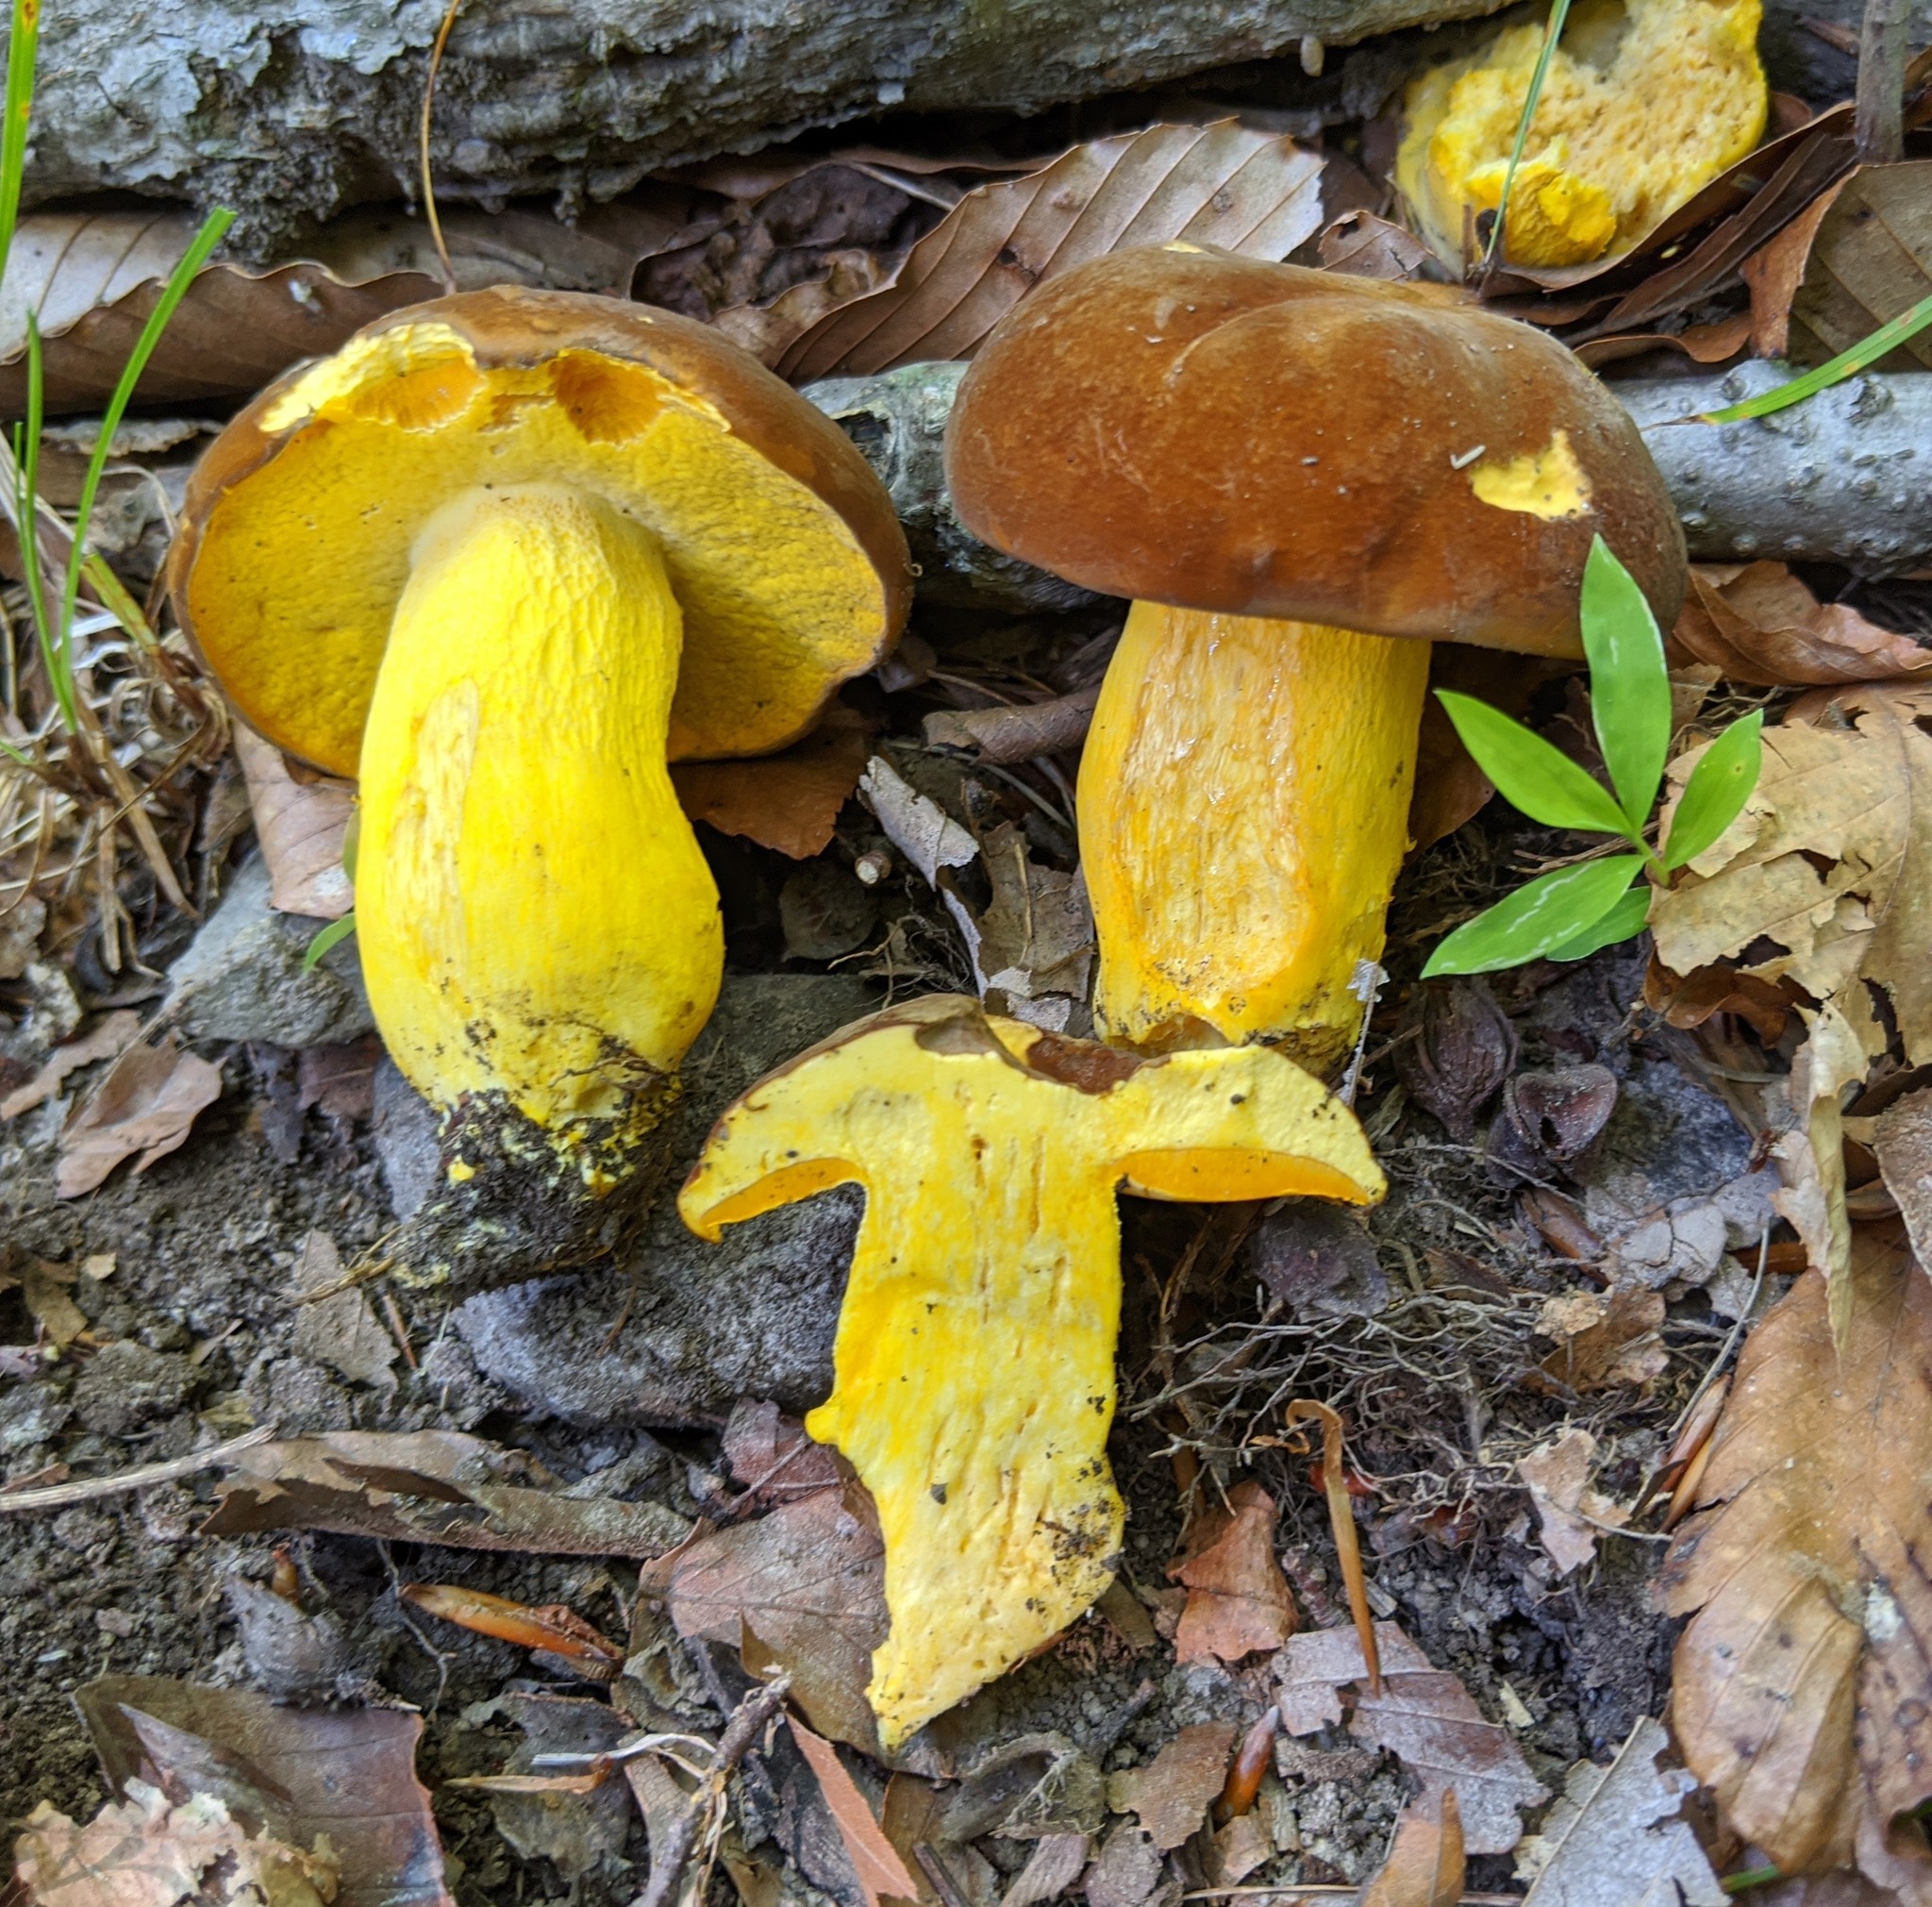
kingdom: Fungi
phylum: Basidiomycota
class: Agaricomycetes
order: Boletales
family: Boletaceae
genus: Boletus
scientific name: Boletus auripes
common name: Butter-foot bolete
